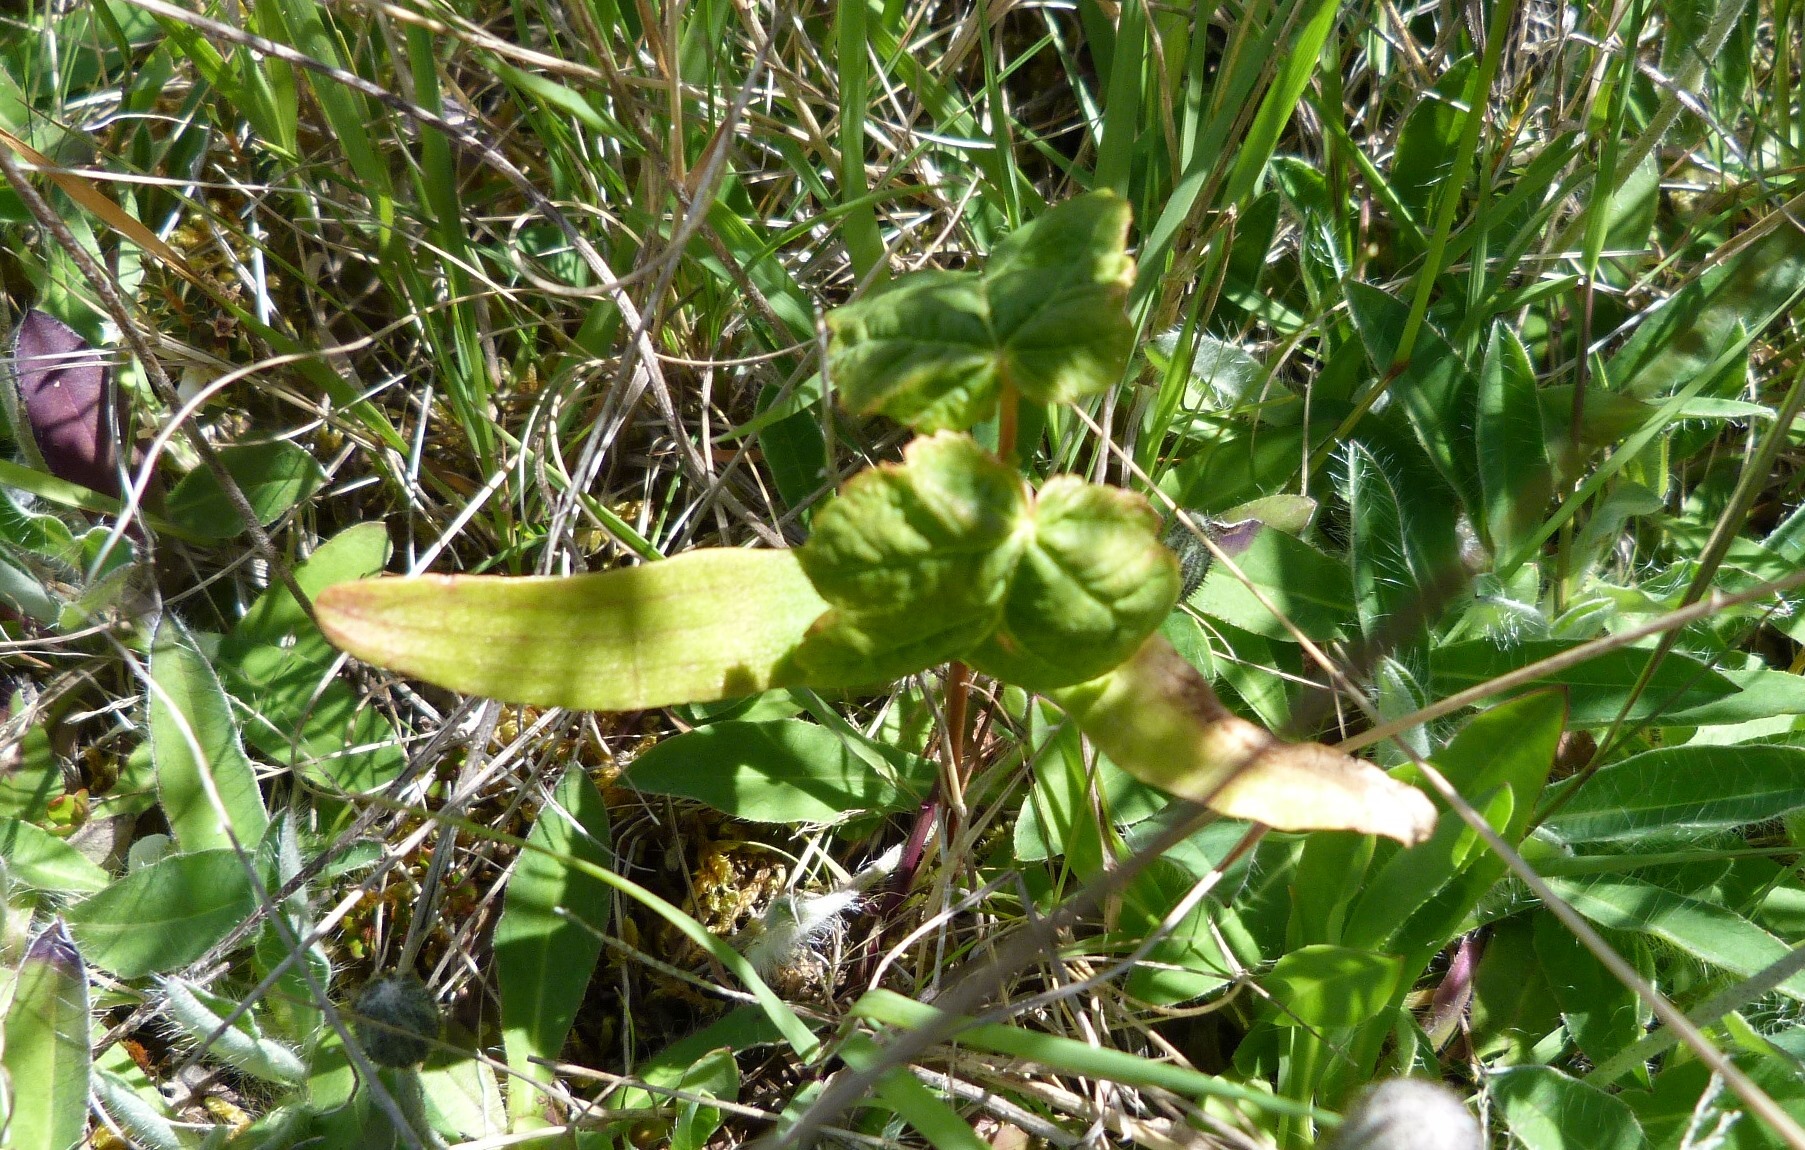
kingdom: Plantae
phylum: Tracheophyta
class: Magnoliopsida
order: Sapindales
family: Sapindaceae
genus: Acer
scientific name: Acer pseudoplatanus
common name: Sycamore
